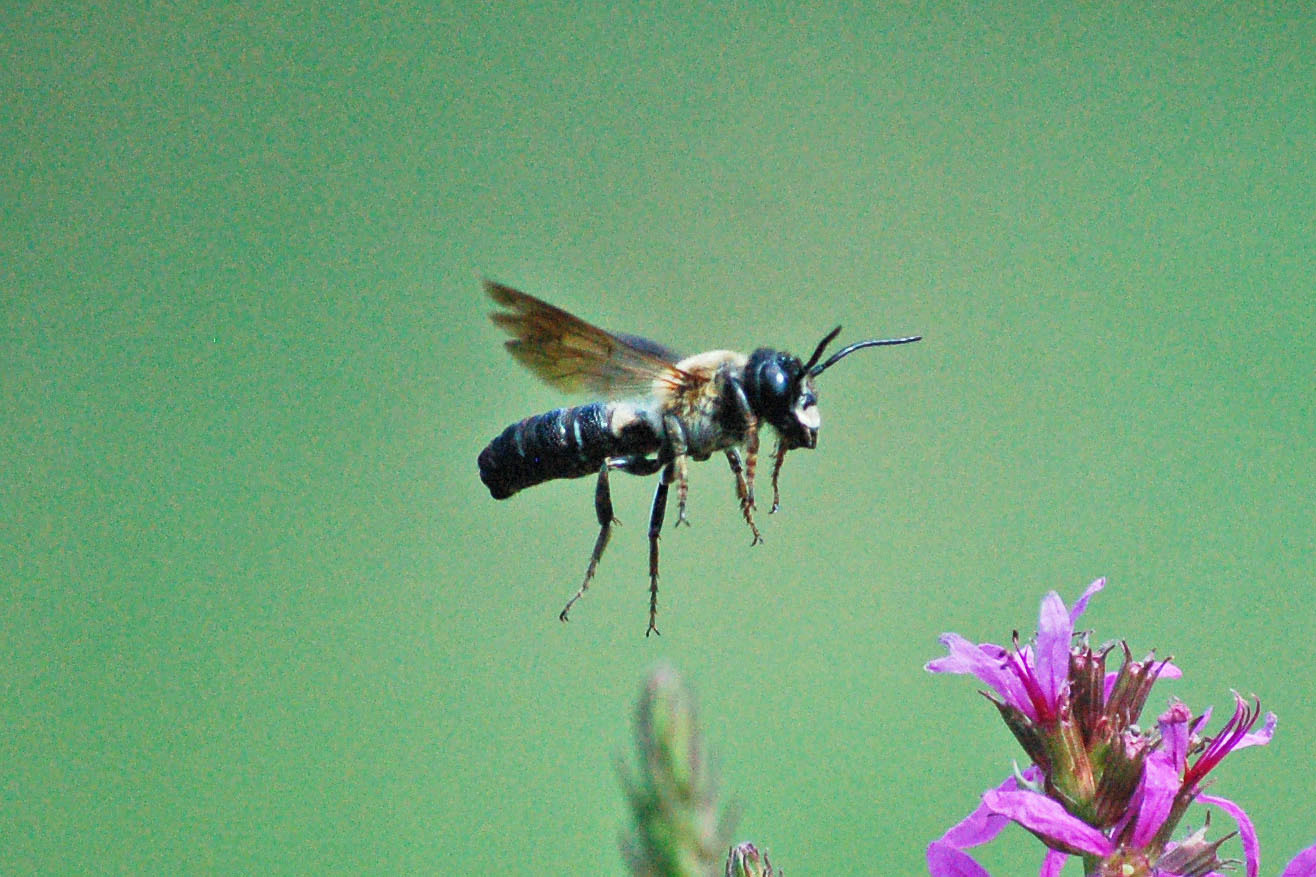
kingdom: Animalia
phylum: Arthropoda
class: Insecta
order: Hymenoptera
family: Megachilidae
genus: Megachile
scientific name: Megachile sculpturalis
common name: Sculptured resin bee
